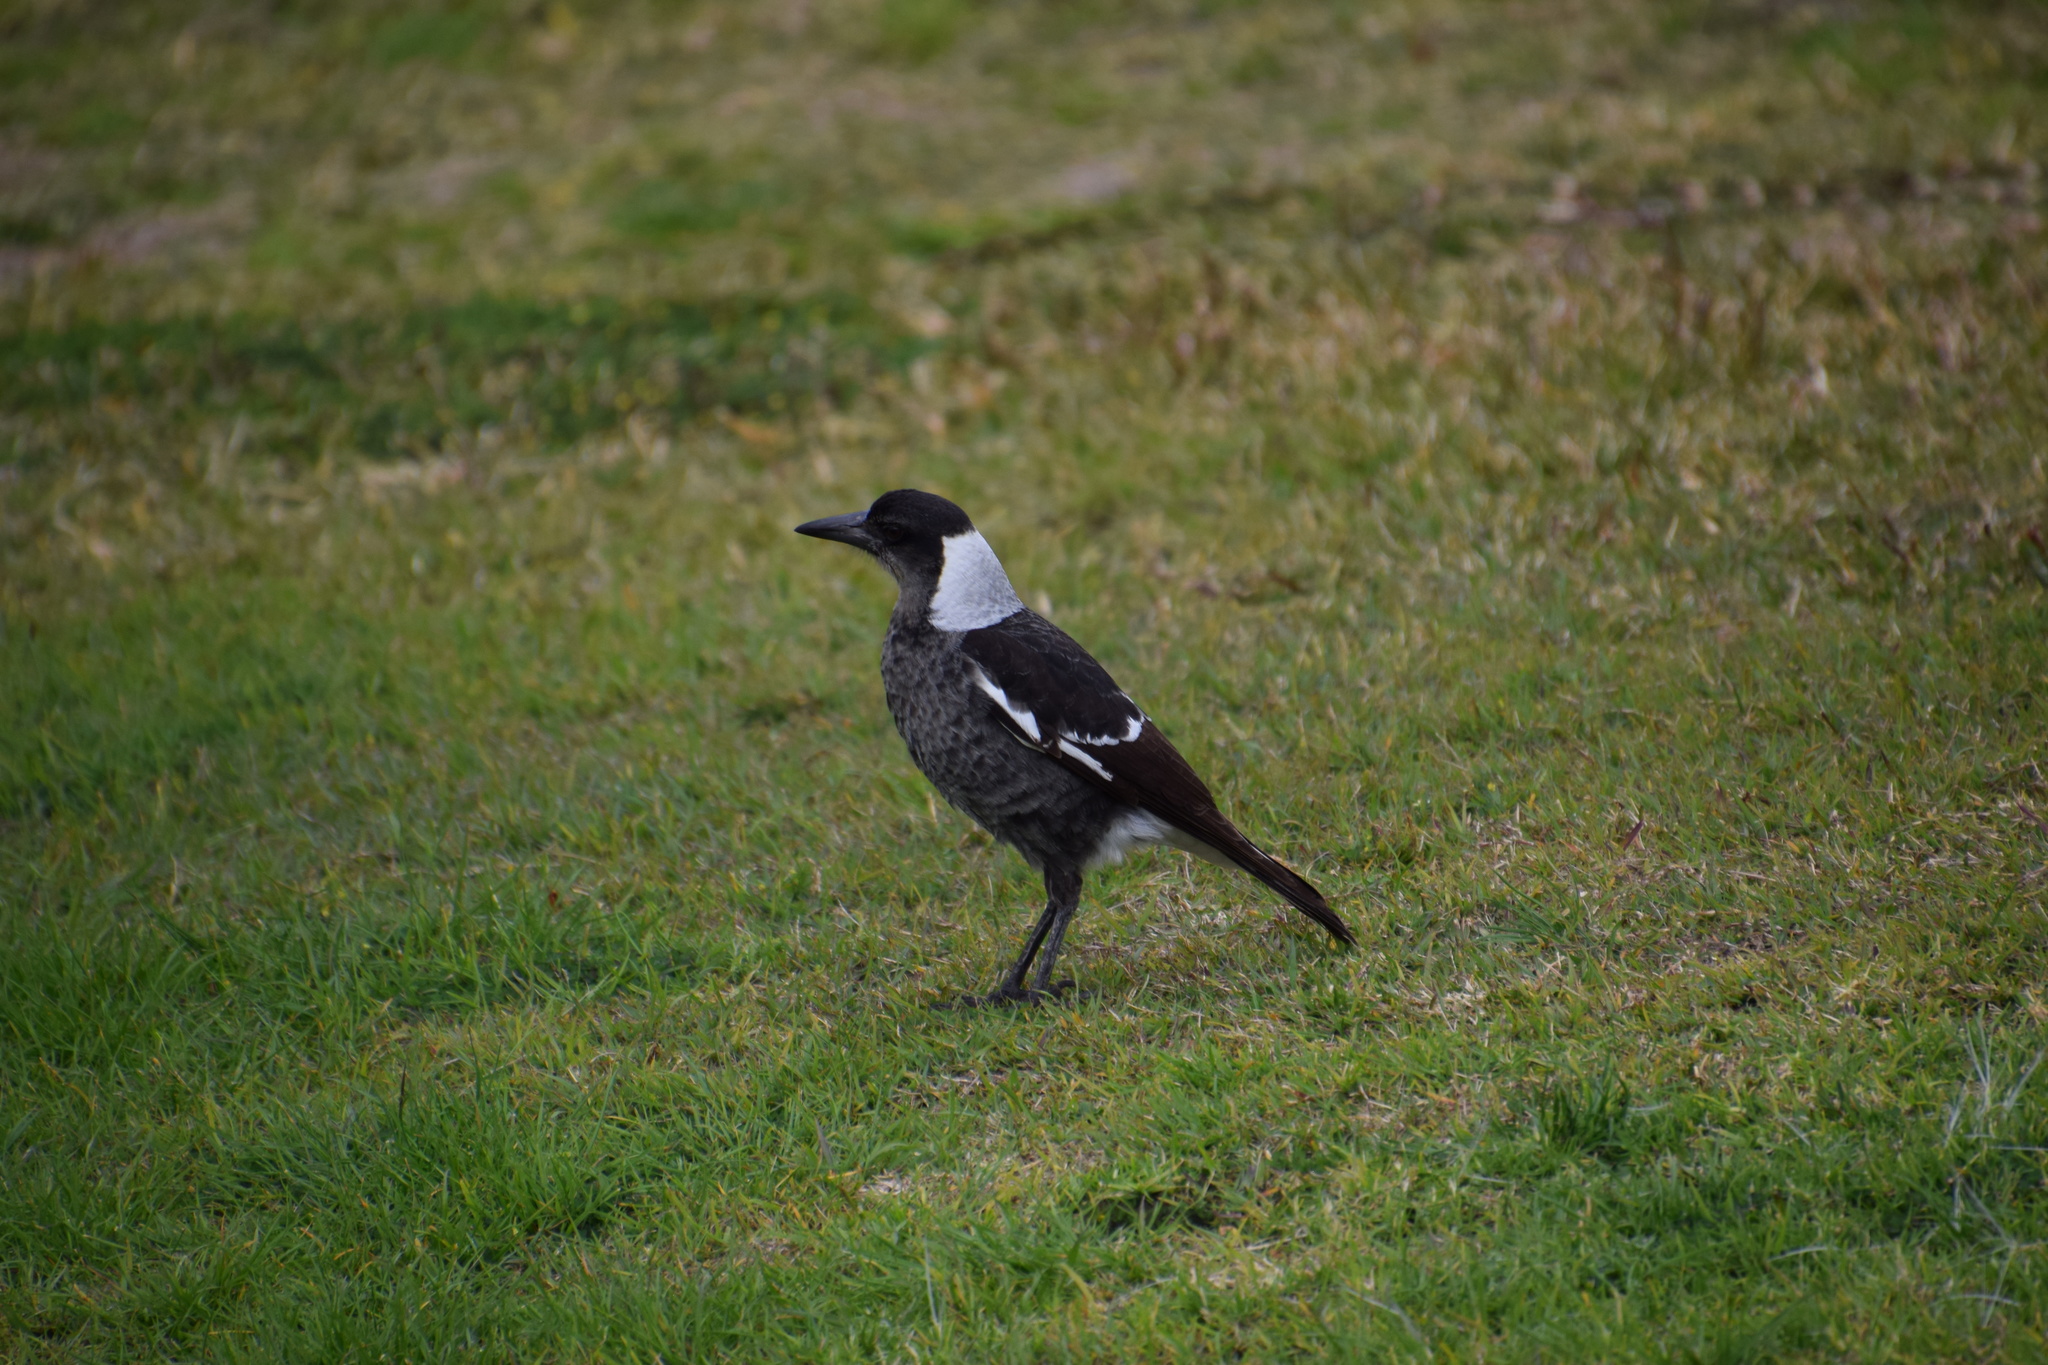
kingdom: Animalia
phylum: Chordata
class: Aves
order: Passeriformes
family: Cracticidae
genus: Gymnorhina
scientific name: Gymnorhina tibicen
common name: Australian magpie
